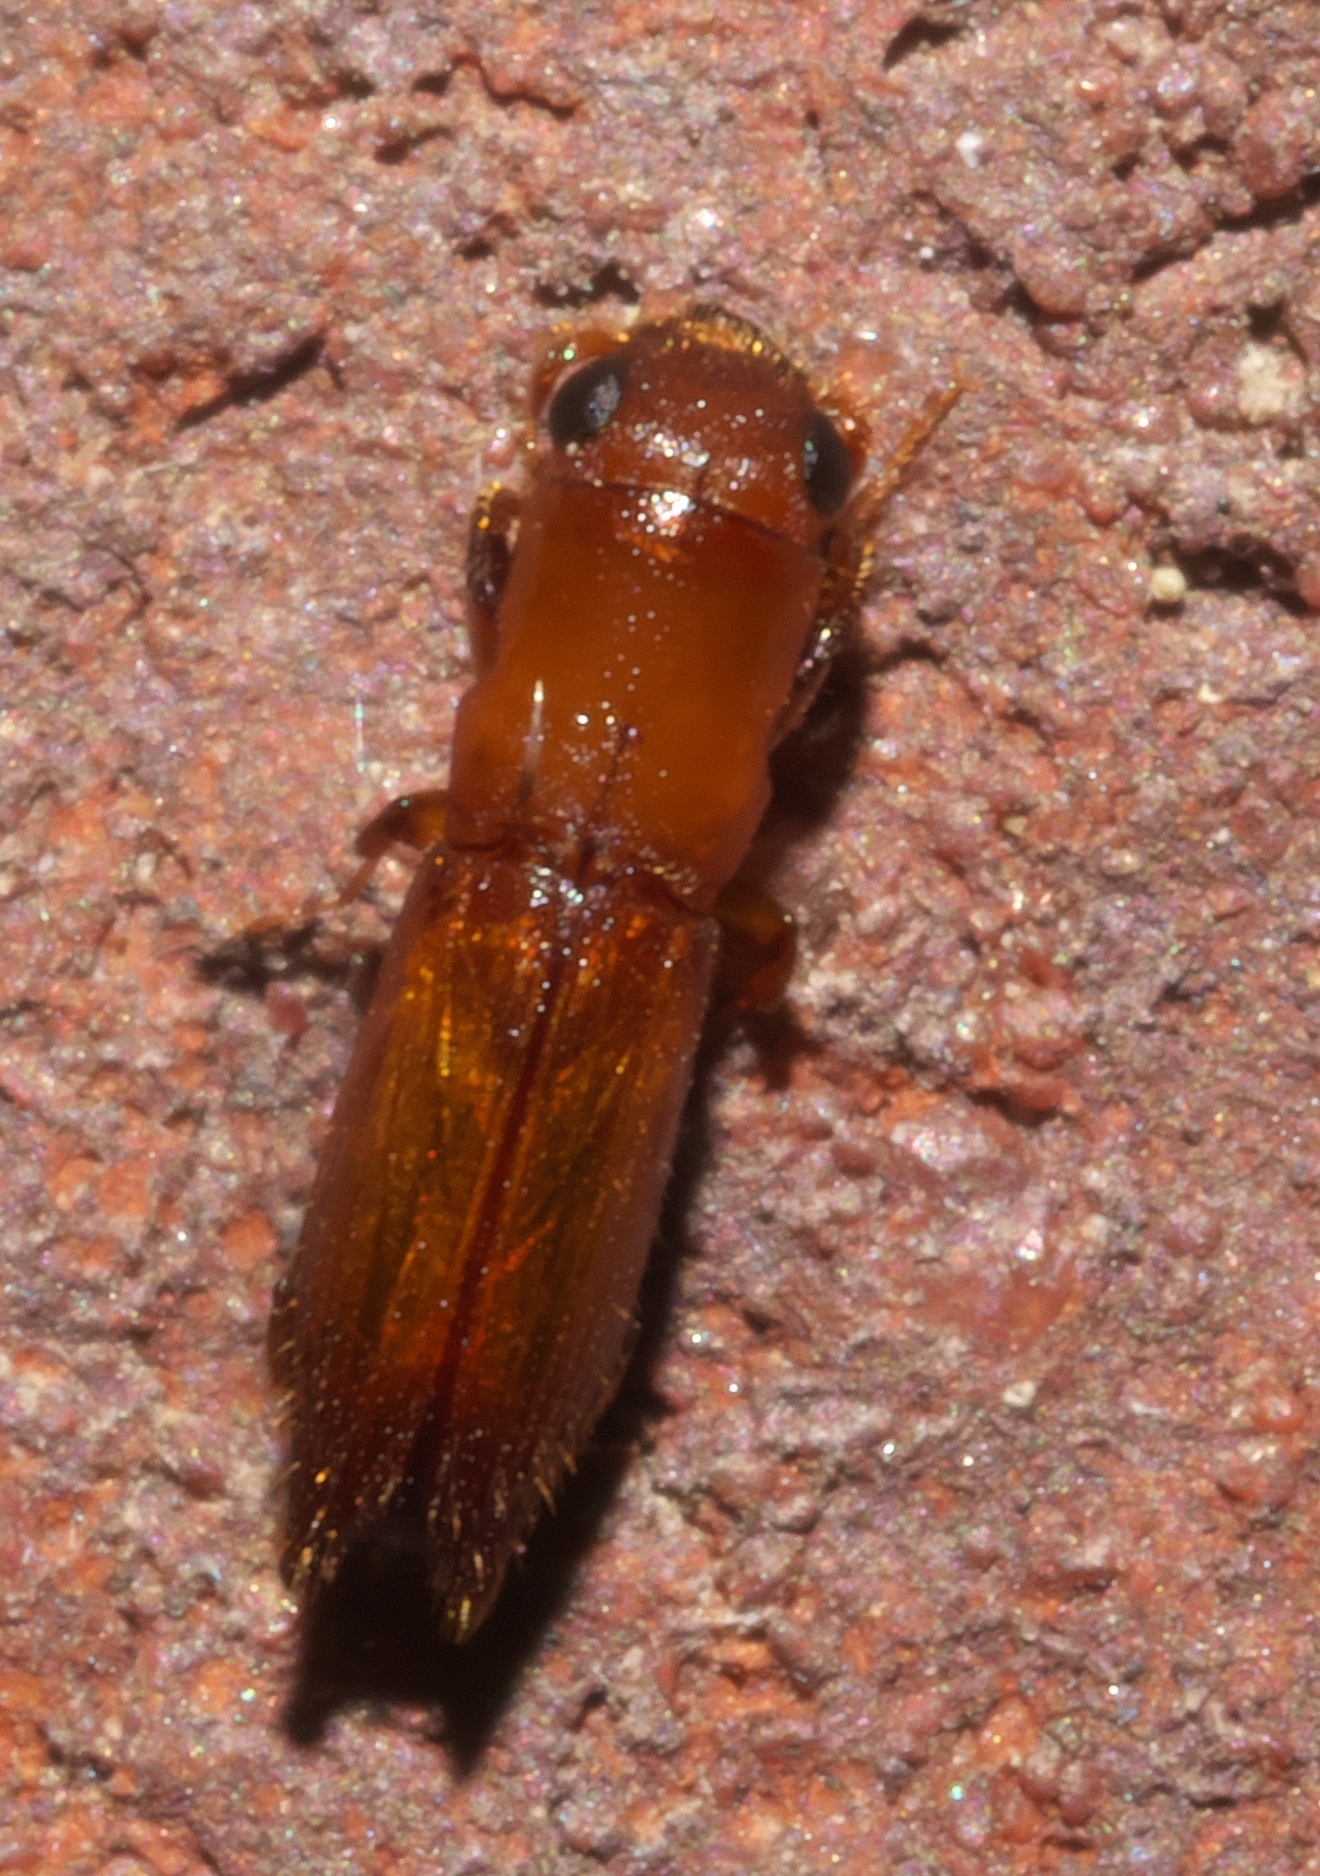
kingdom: Animalia
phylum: Arthropoda
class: Insecta
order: Coleoptera
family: Curculionidae
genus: Euplatypus
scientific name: Euplatypus compositus
